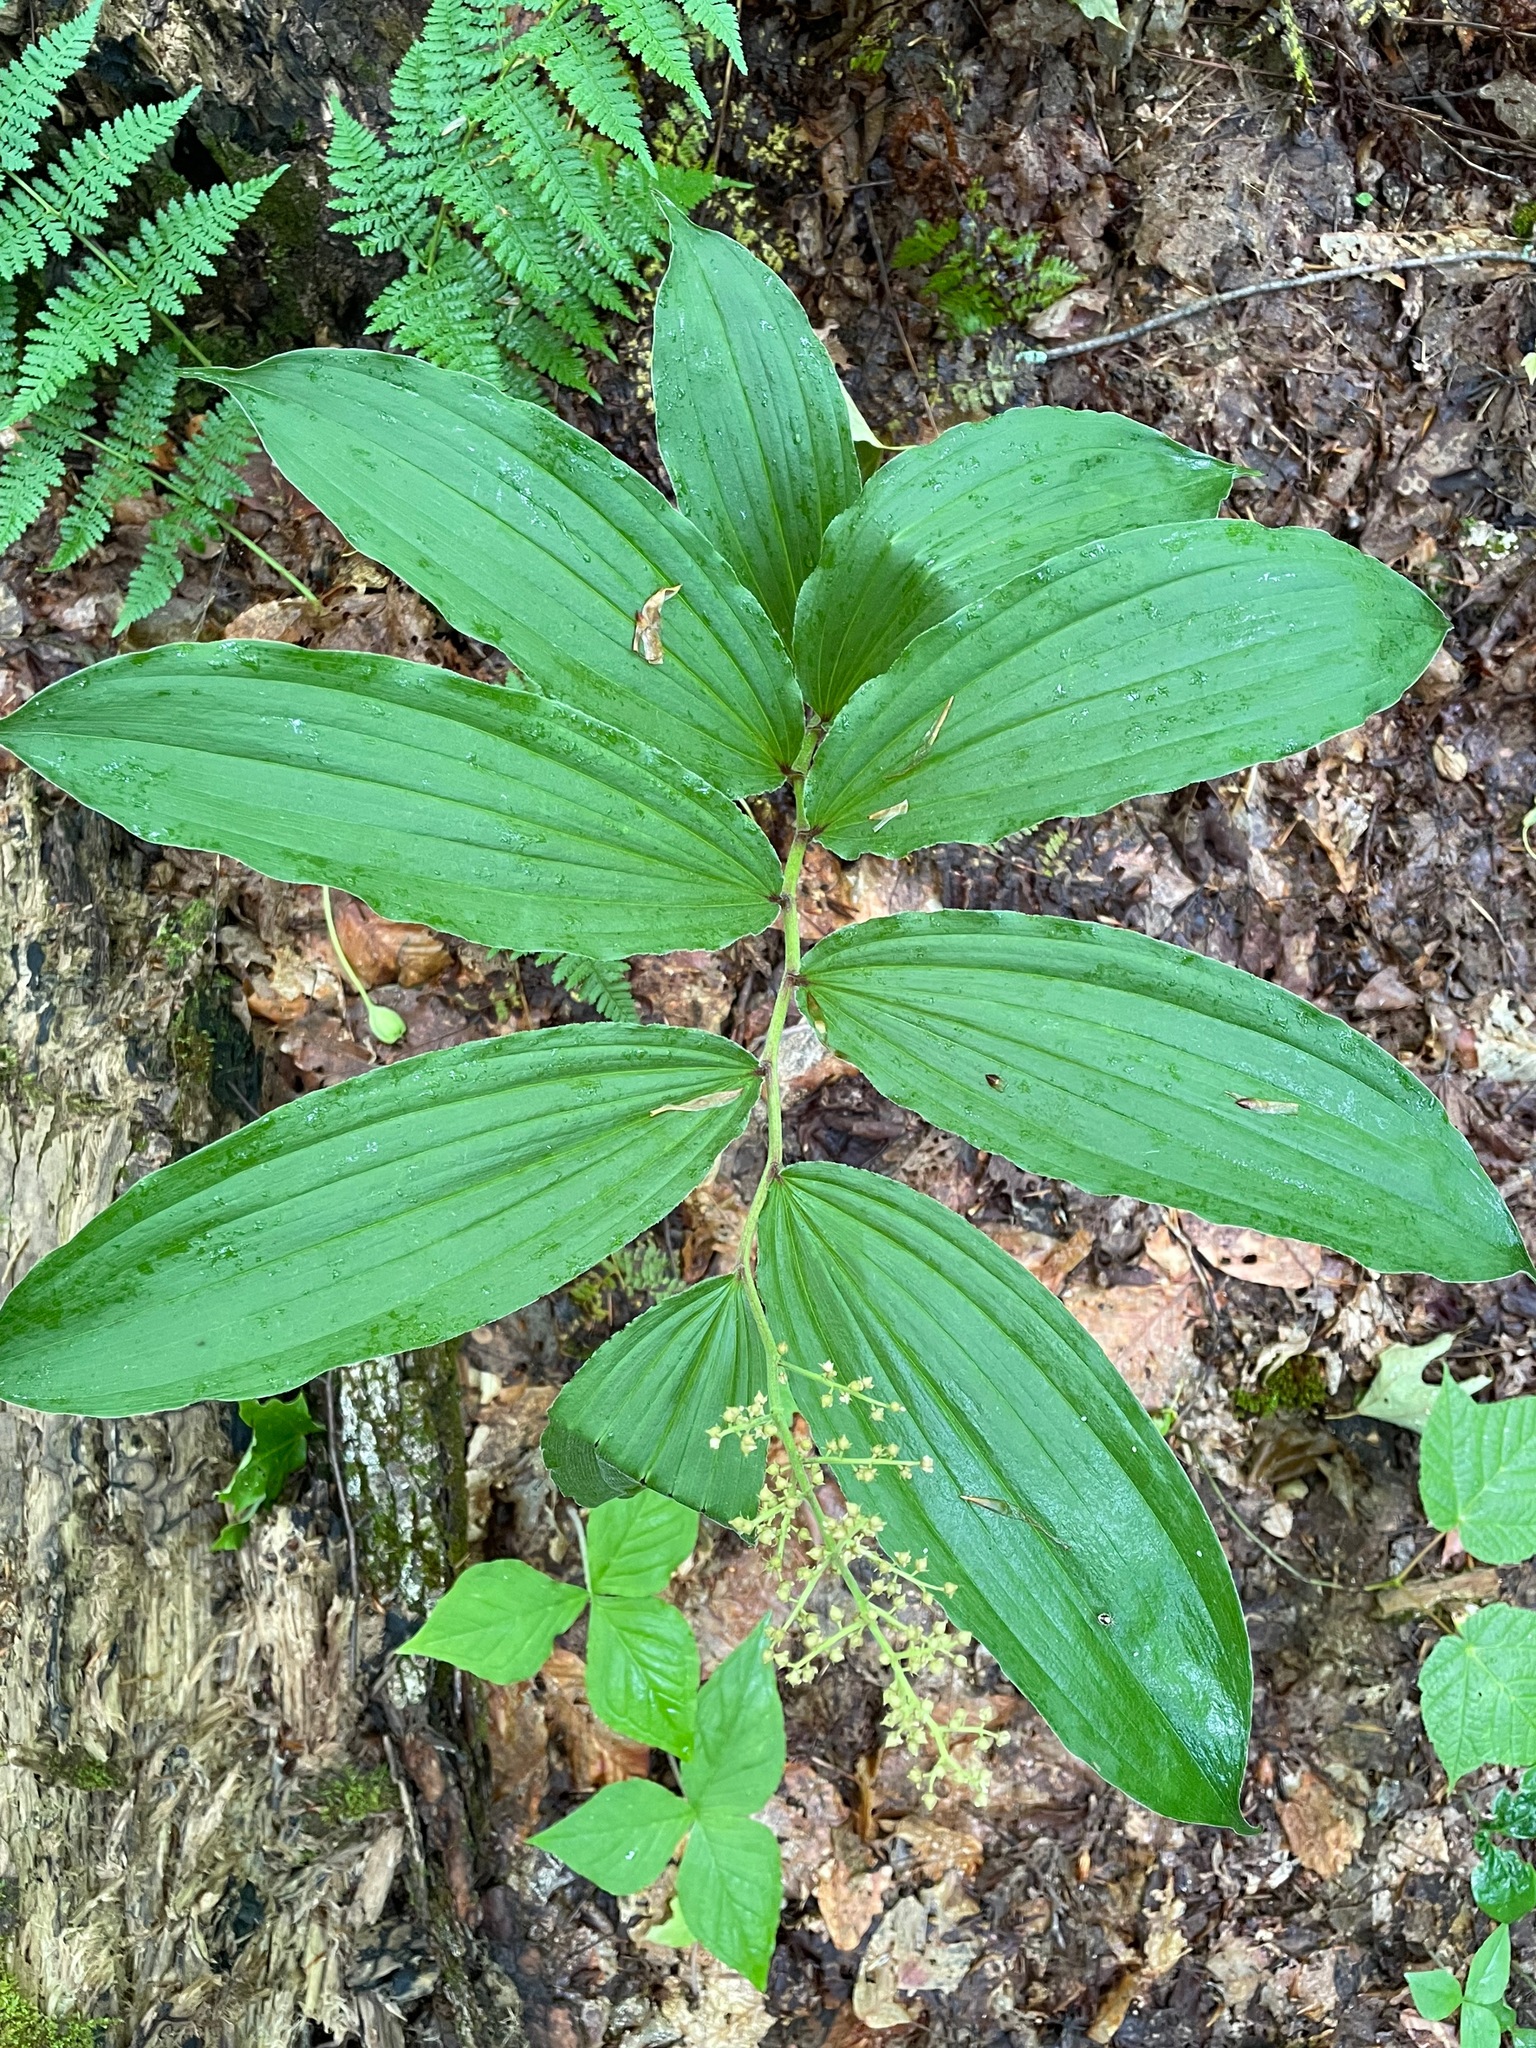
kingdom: Plantae
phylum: Tracheophyta
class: Liliopsida
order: Asparagales
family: Asparagaceae
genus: Maianthemum
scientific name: Maianthemum racemosum
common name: False spikenard
